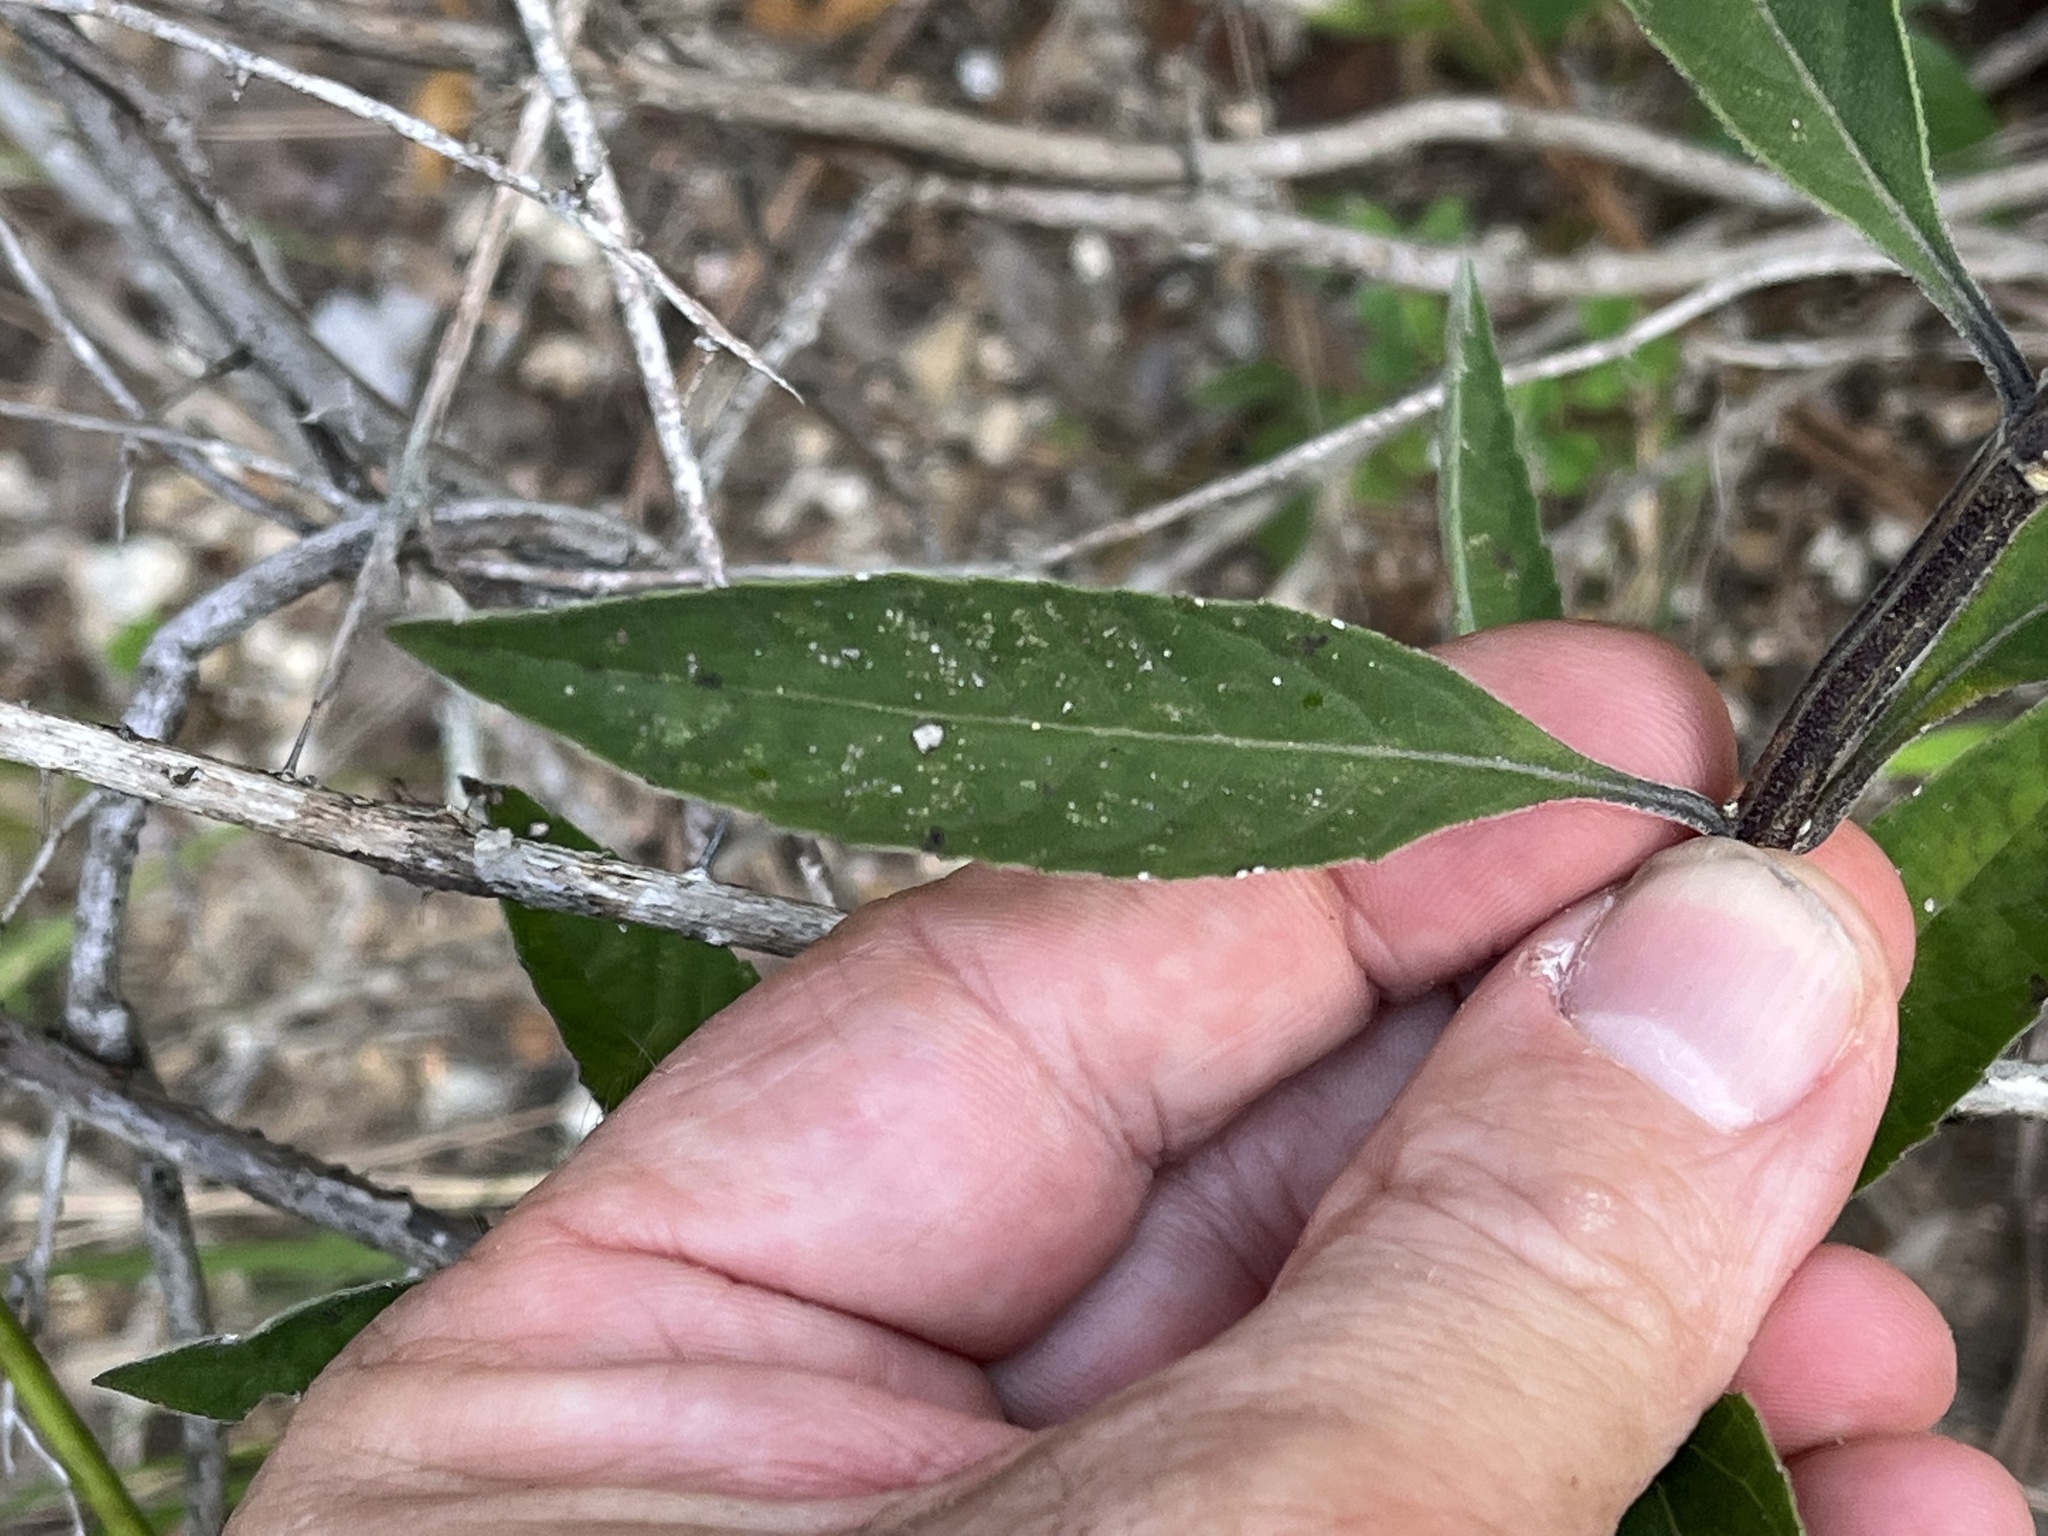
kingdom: Plantae
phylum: Tracheophyta
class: Magnoliopsida
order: Lamiales
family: Lamiaceae
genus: Salvia
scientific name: Salvia azurea
